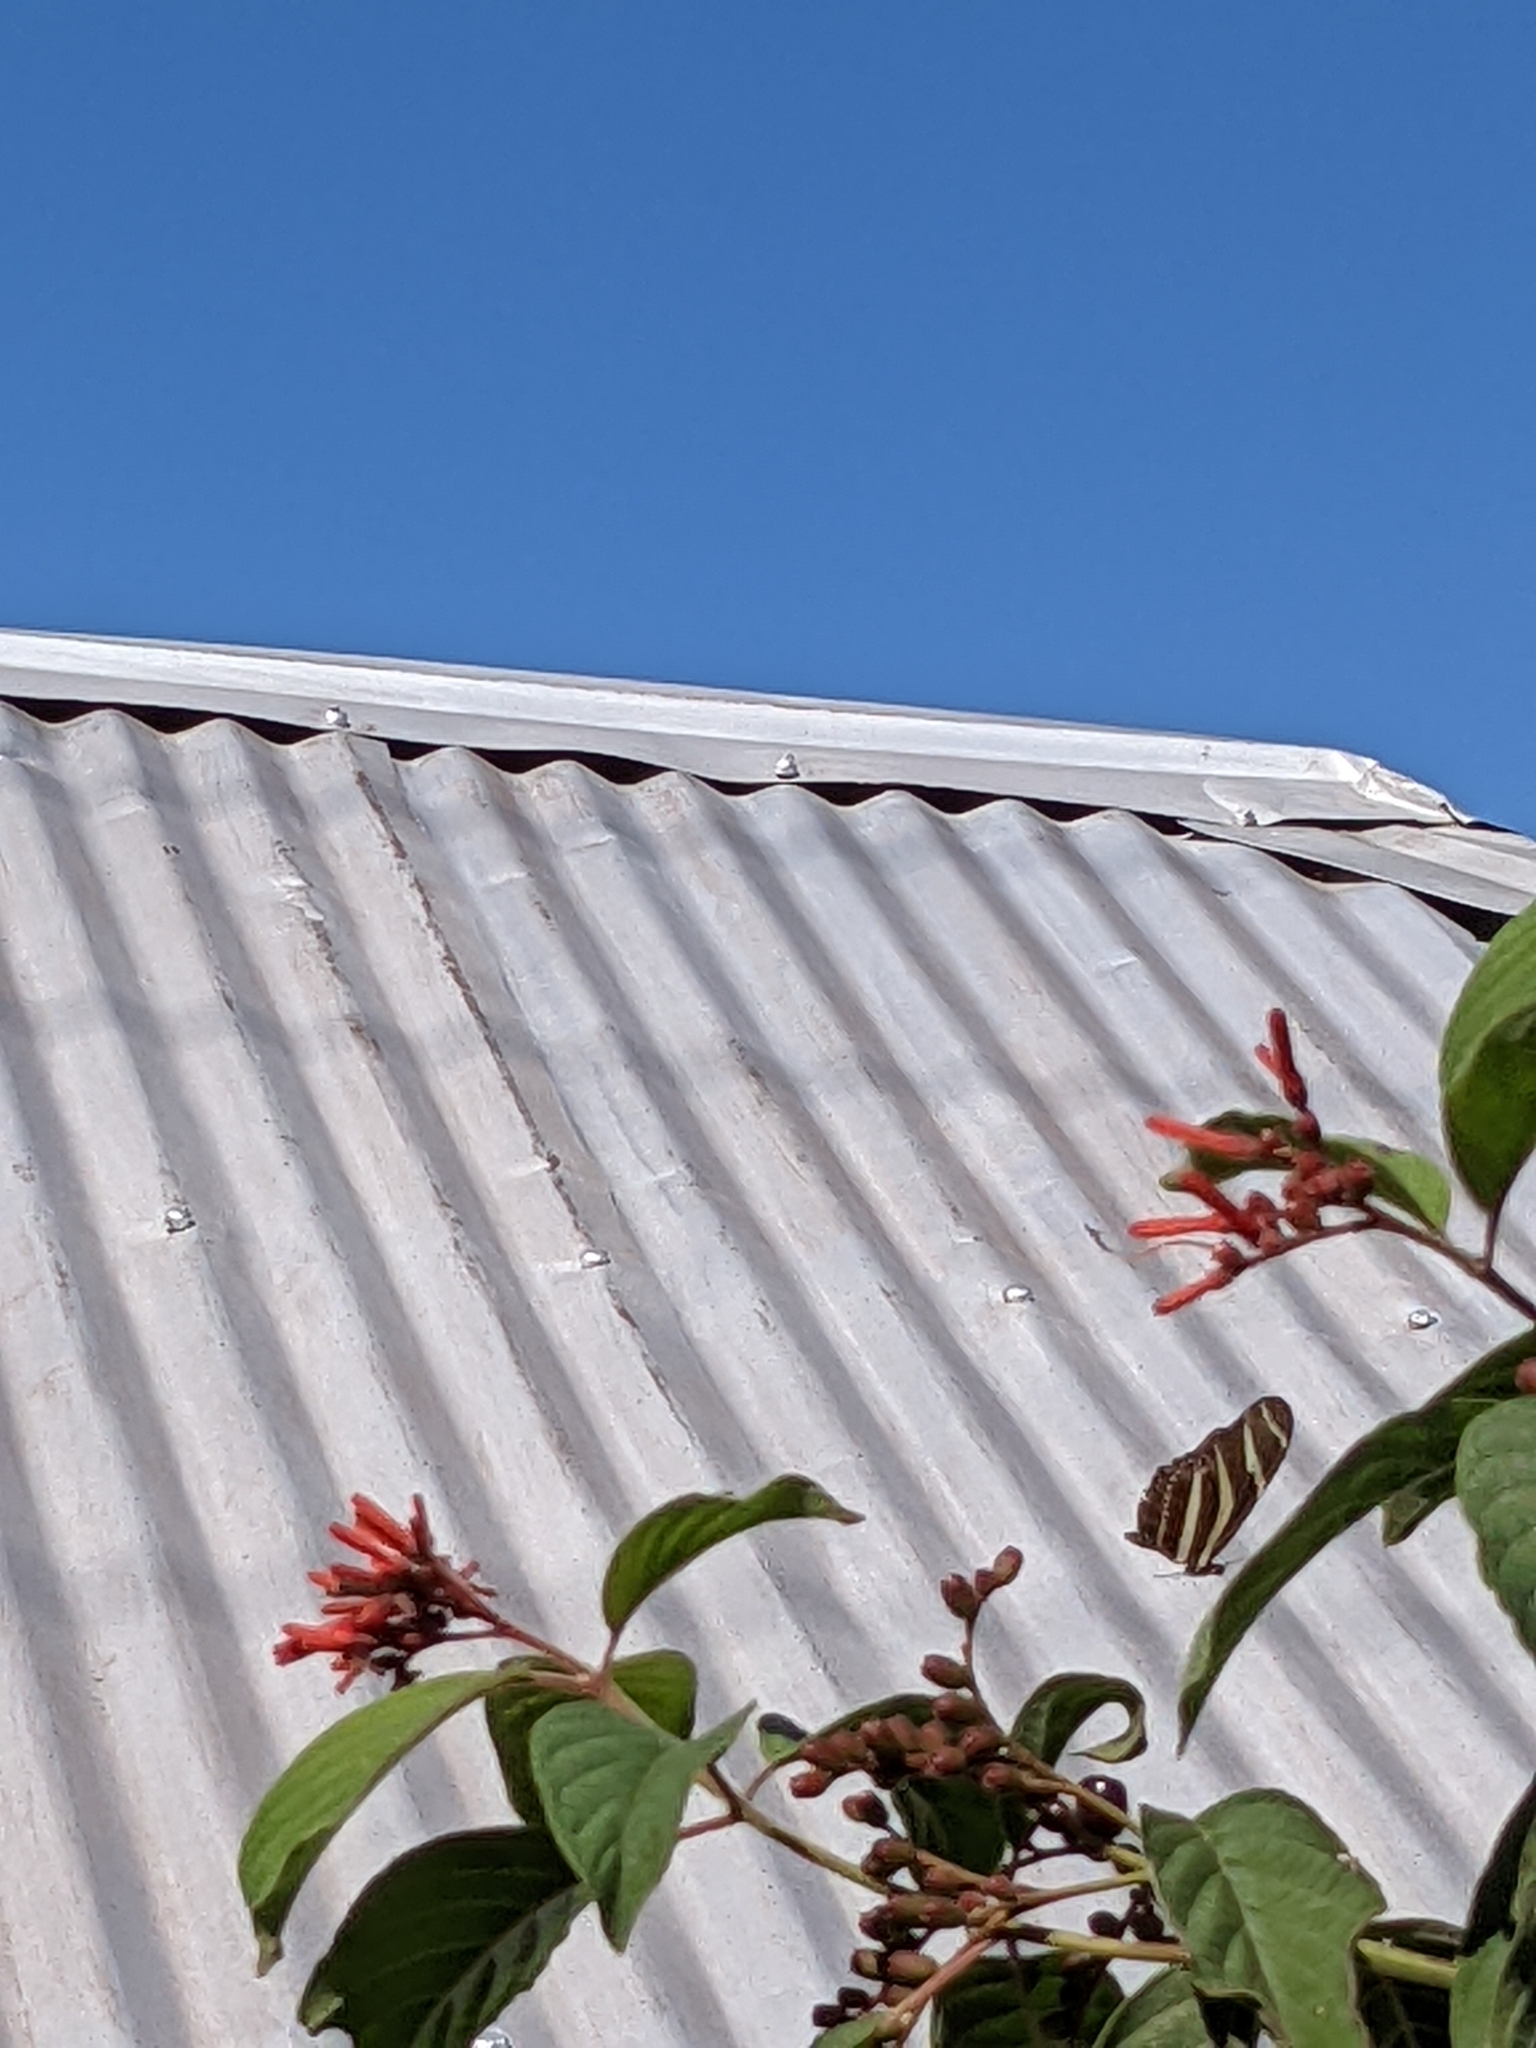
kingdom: Plantae
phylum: Tracheophyta
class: Magnoliopsida
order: Gentianales
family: Rubiaceae
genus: Hamelia
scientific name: Hamelia patens
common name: Redhead
